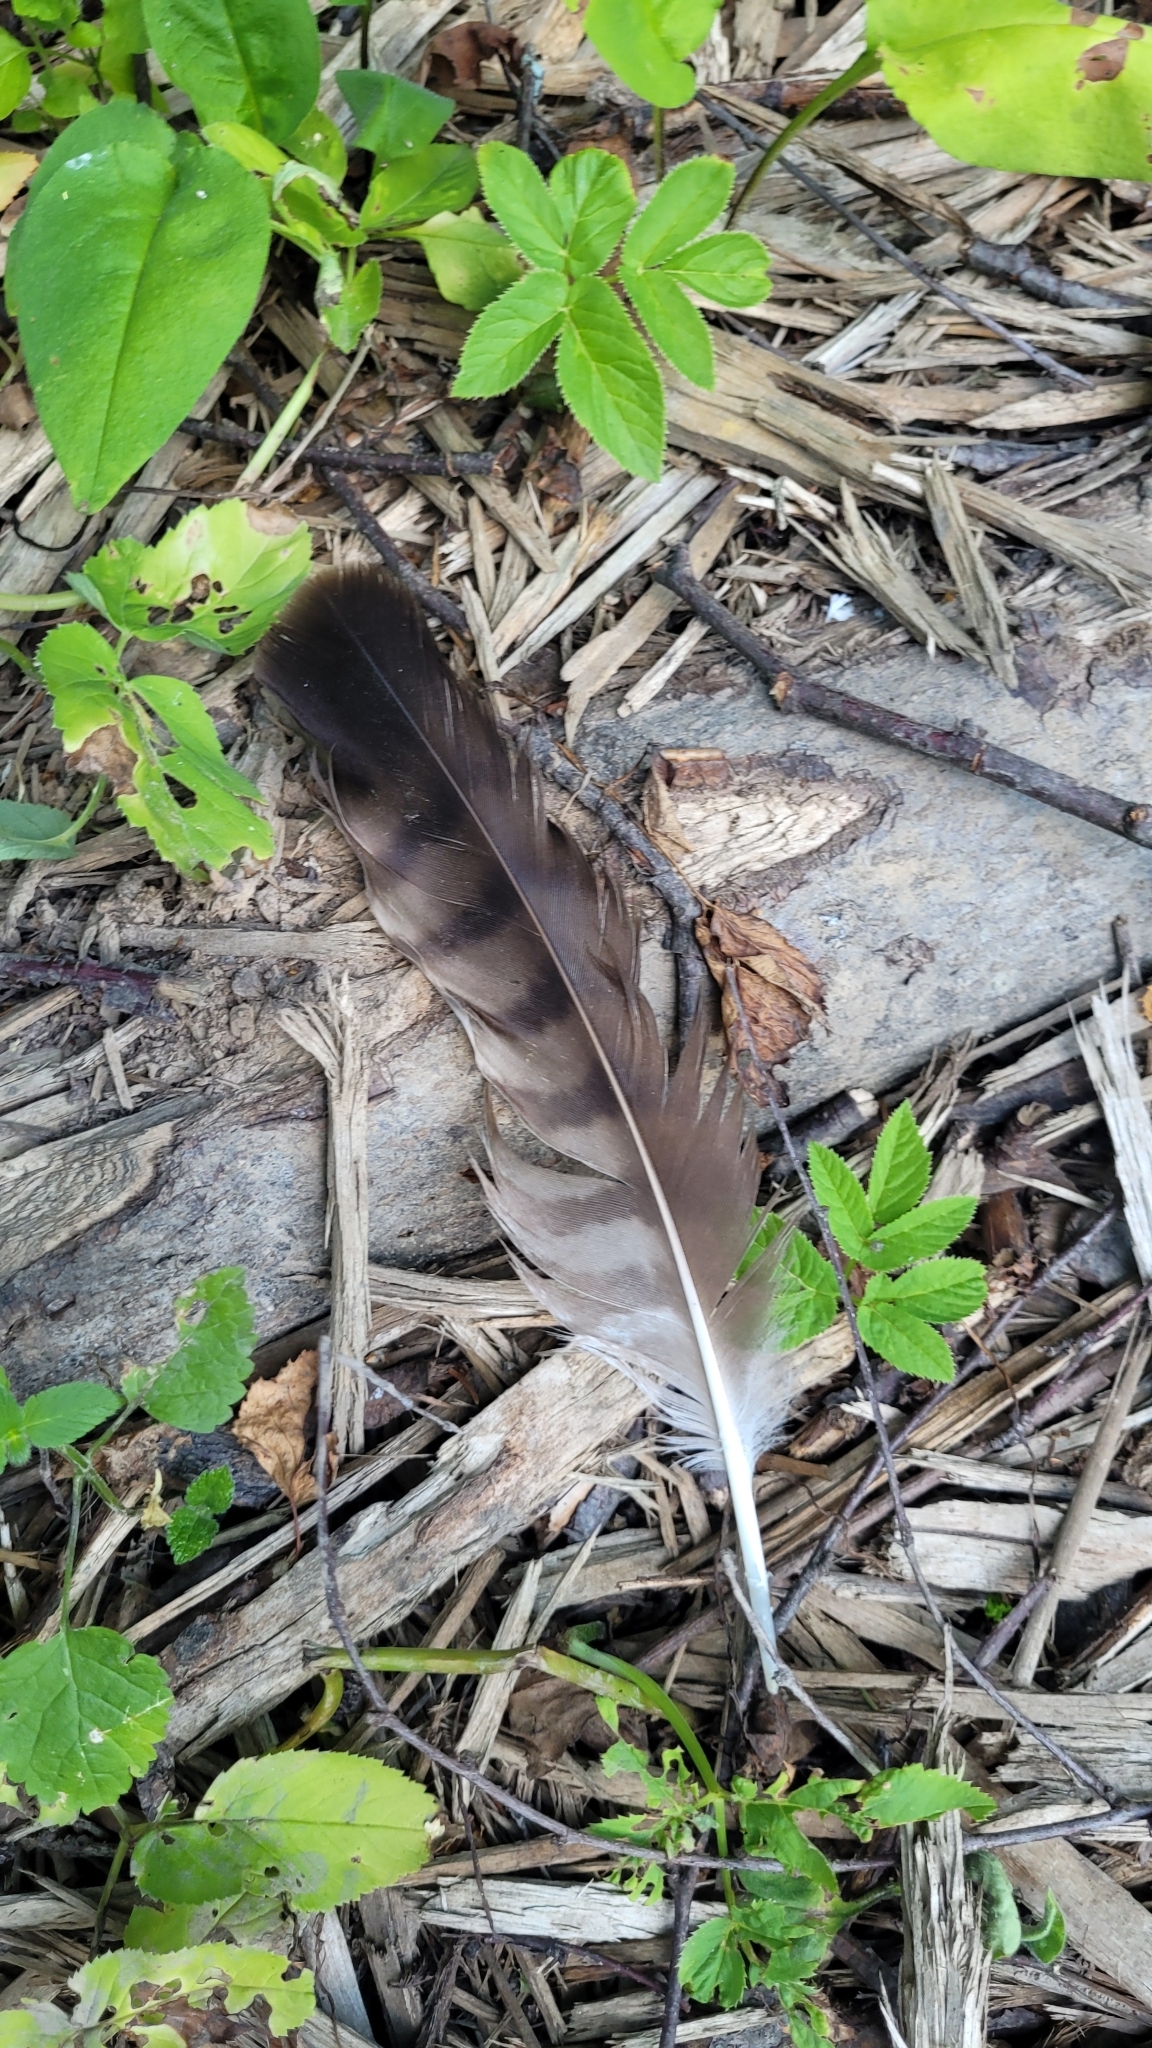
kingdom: Animalia
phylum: Chordata
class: Aves
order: Accipitriformes
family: Accipitridae
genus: Buteo
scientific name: Buteo buteo
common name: Common buzzard
